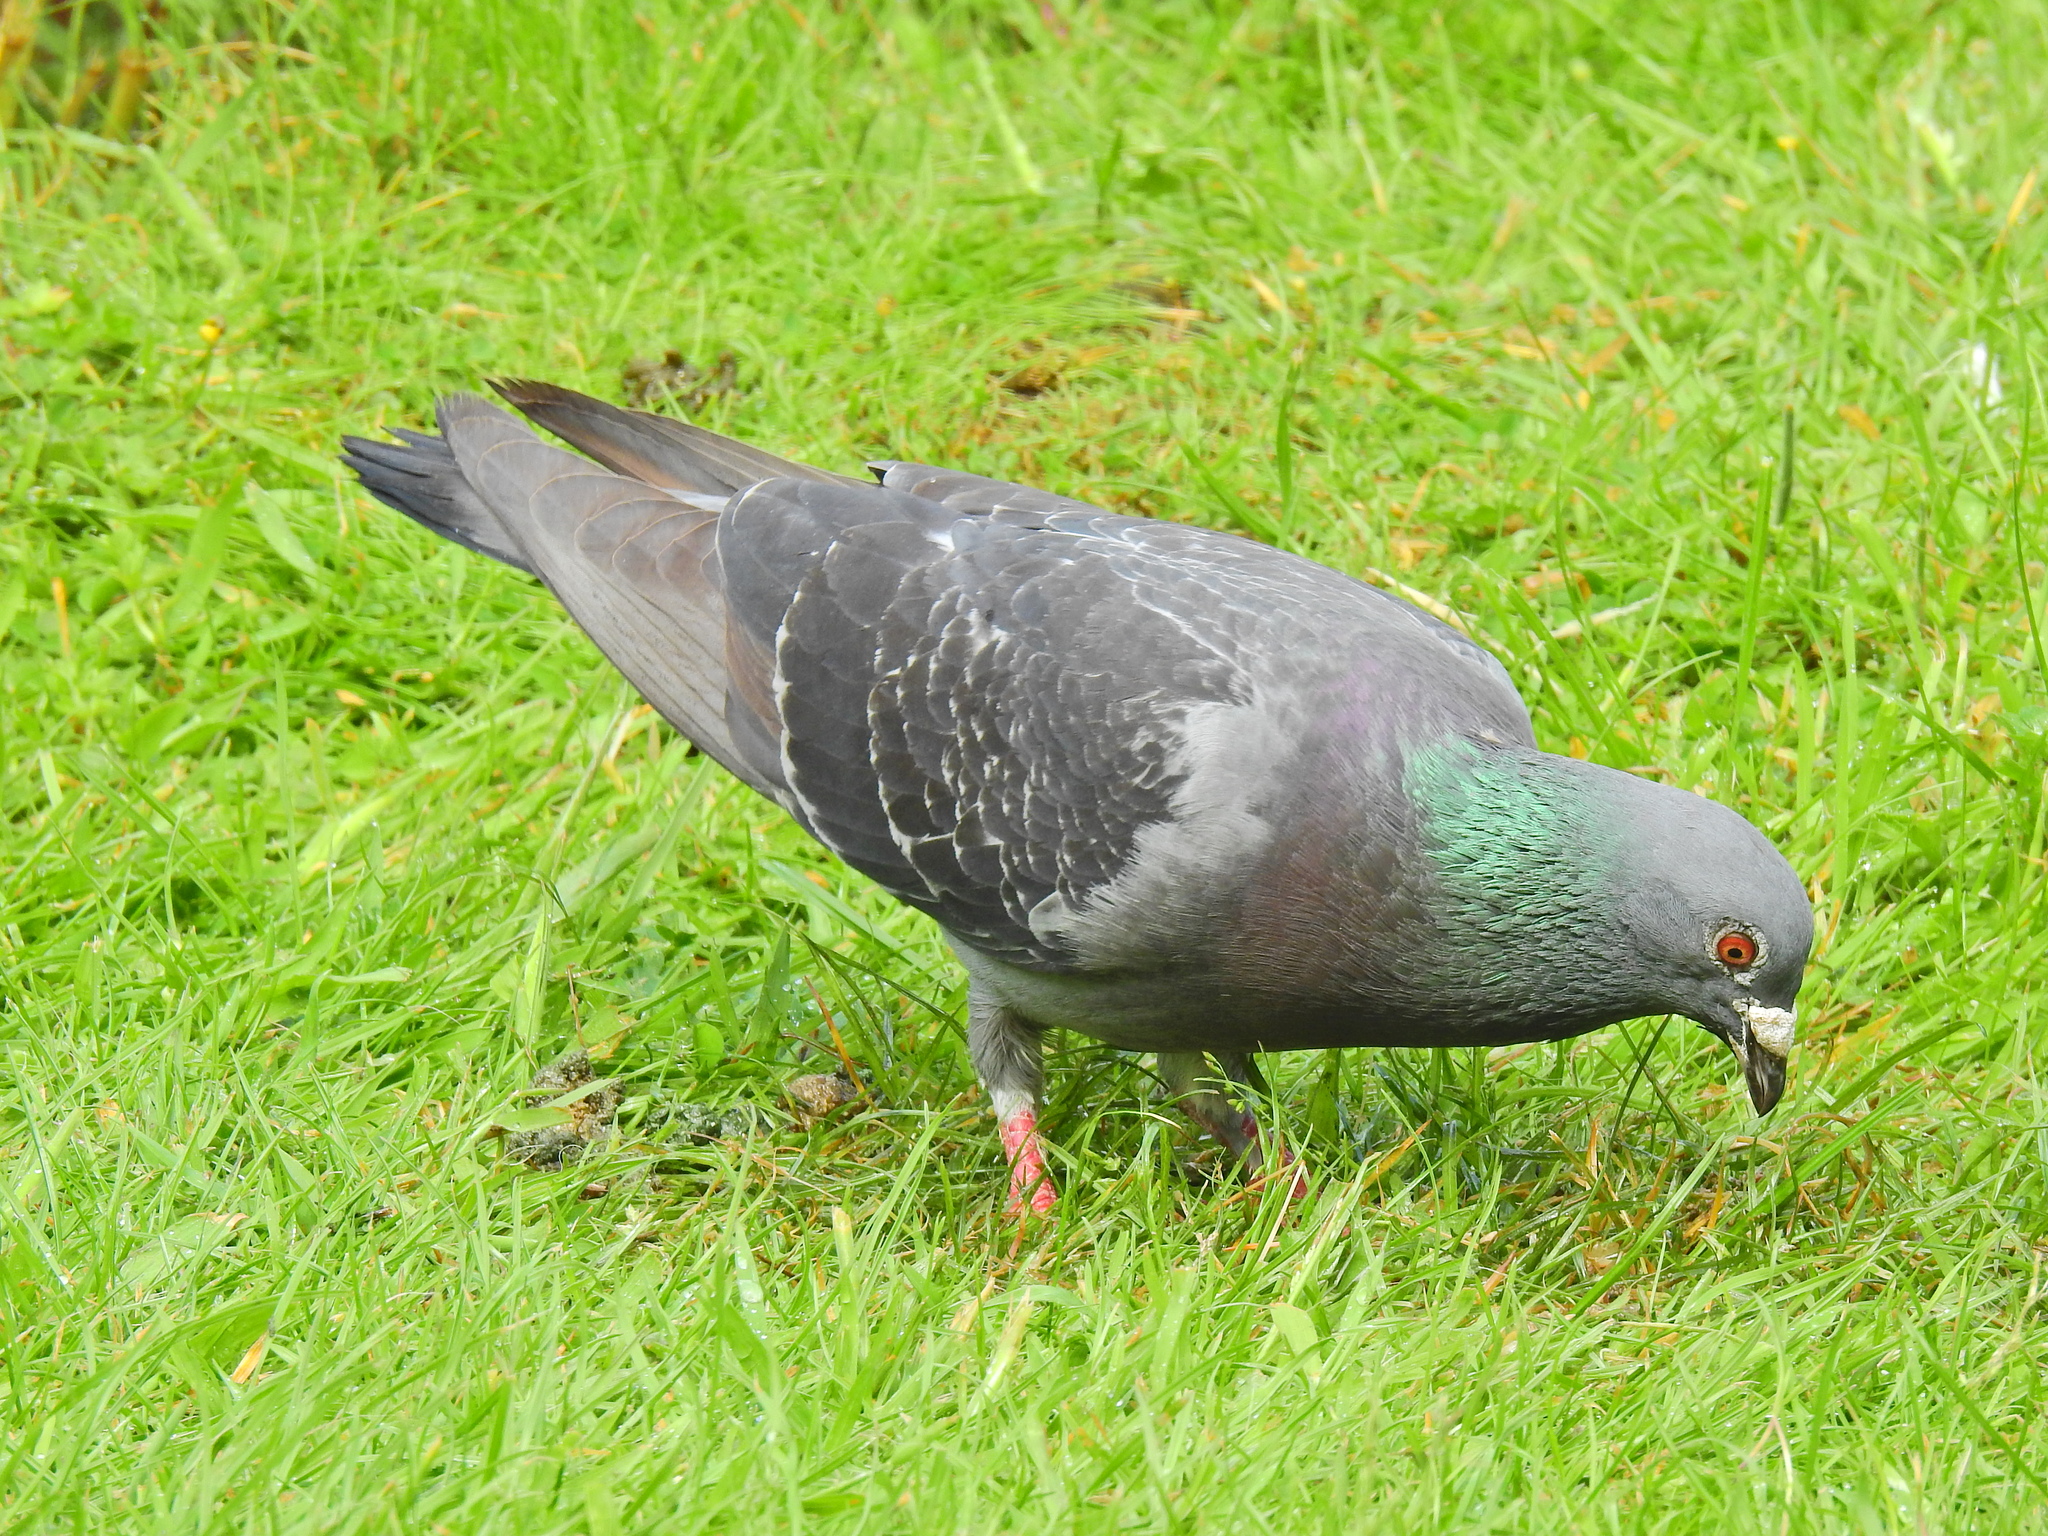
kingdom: Animalia
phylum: Chordata
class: Aves
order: Columbiformes
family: Columbidae
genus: Columba
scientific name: Columba livia
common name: Rock pigeon
